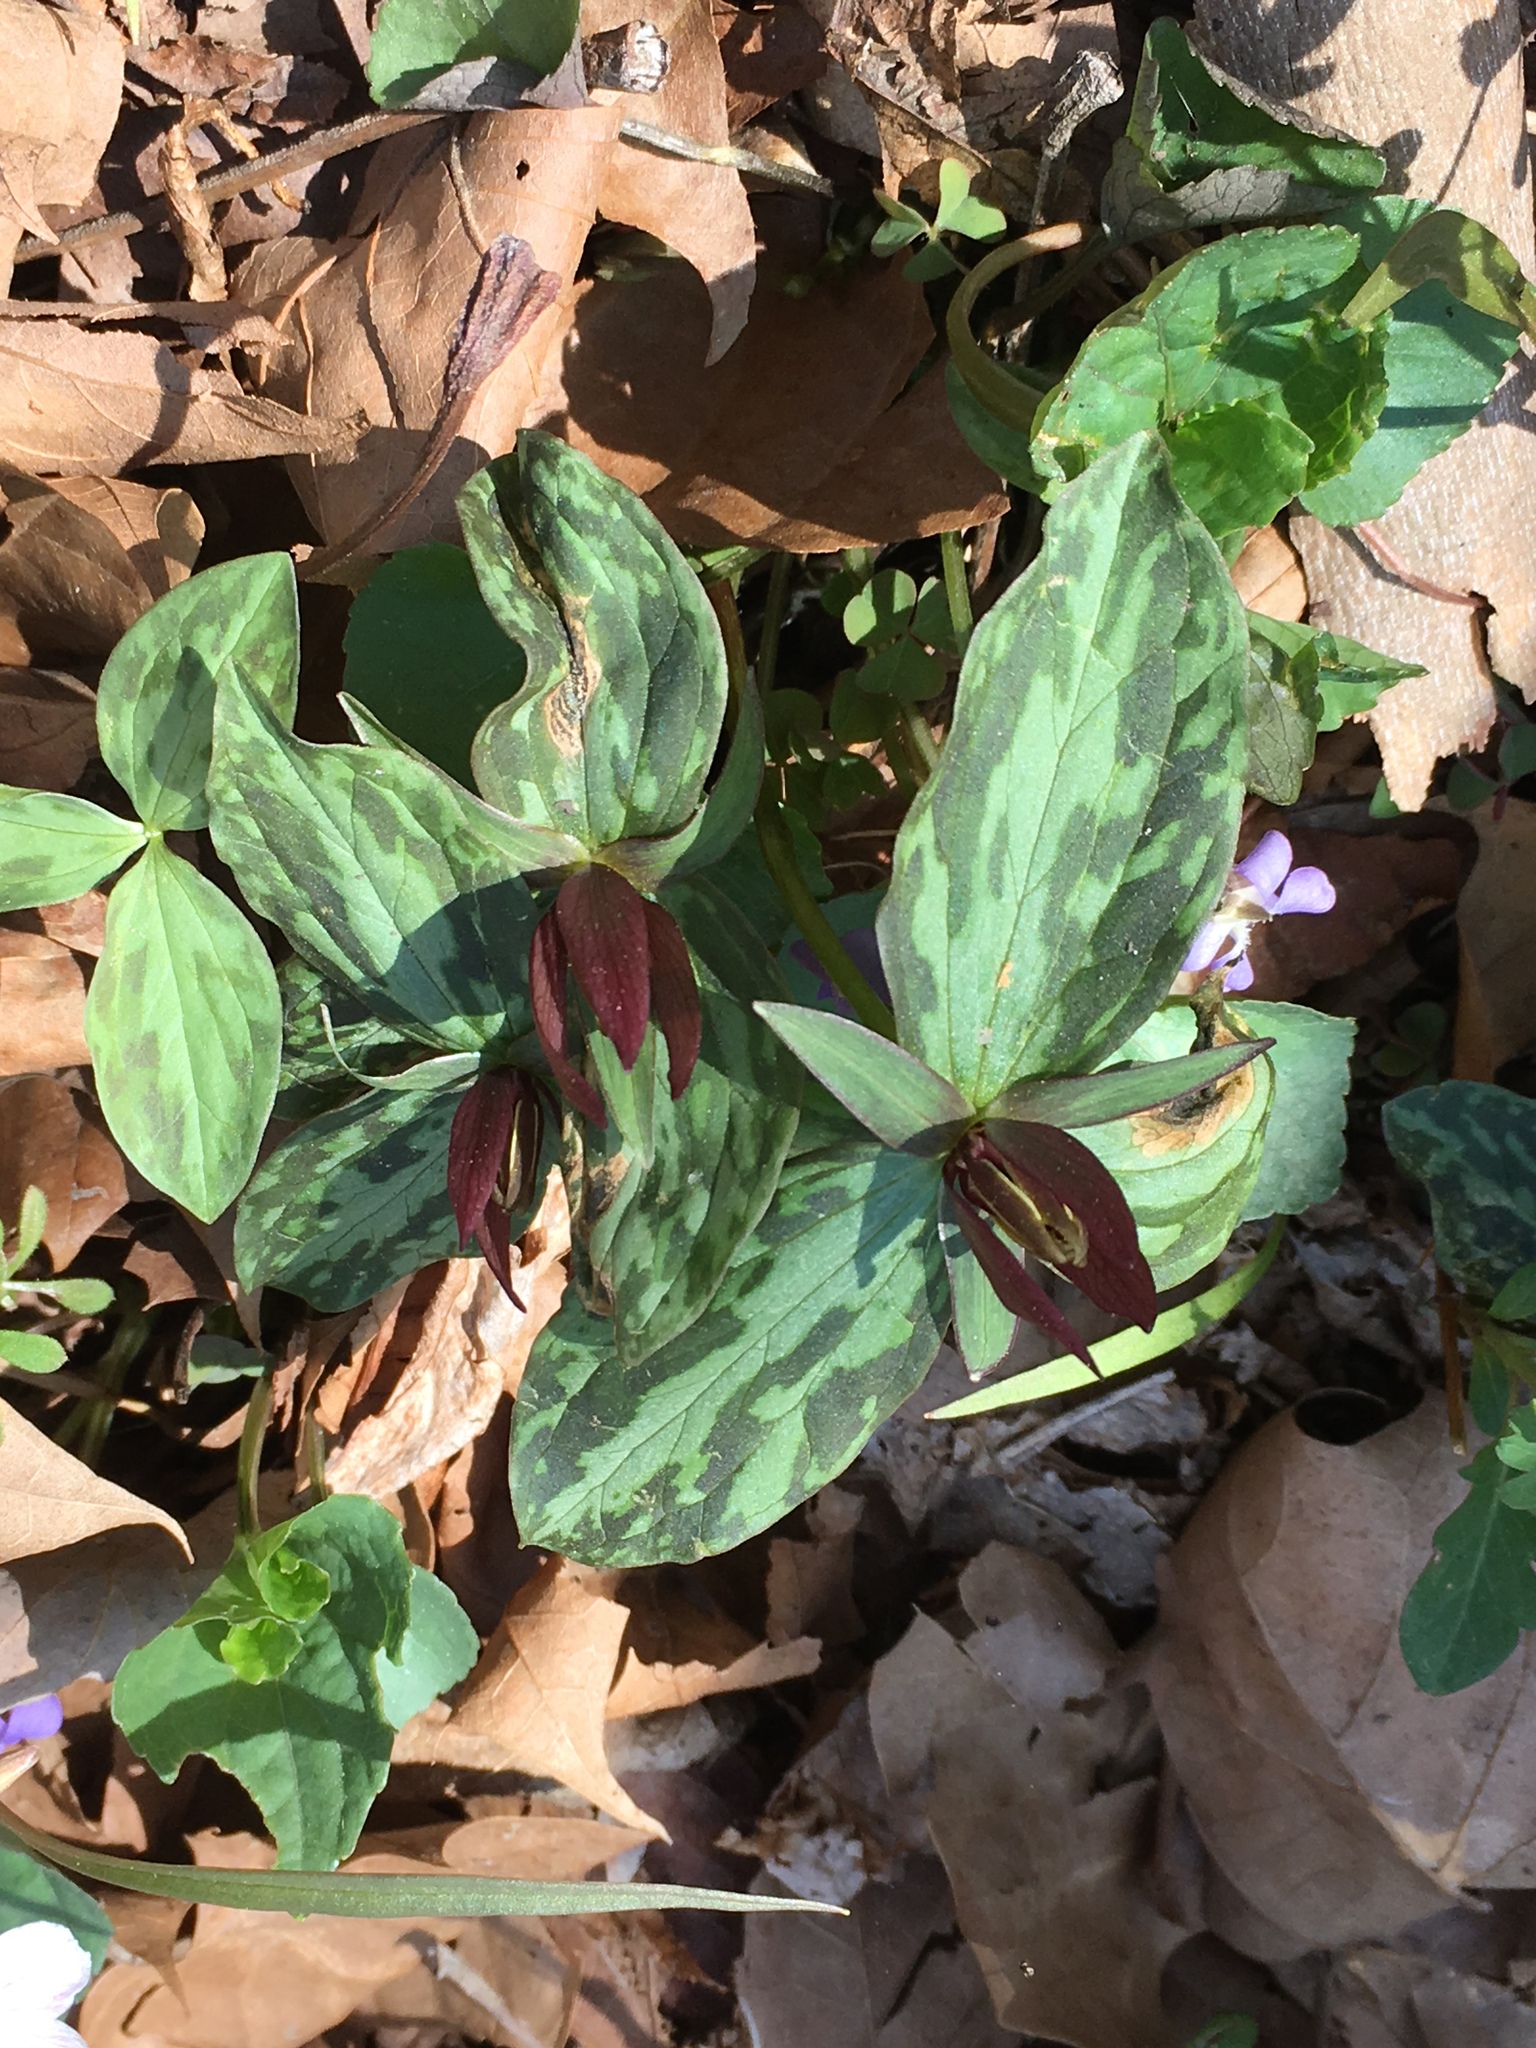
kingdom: Plantae
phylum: Tracheophyta
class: Liliopsida
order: Liliales
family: Melanthiaceae
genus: Trillium
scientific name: Trillium sessile
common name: Sessile trillium
